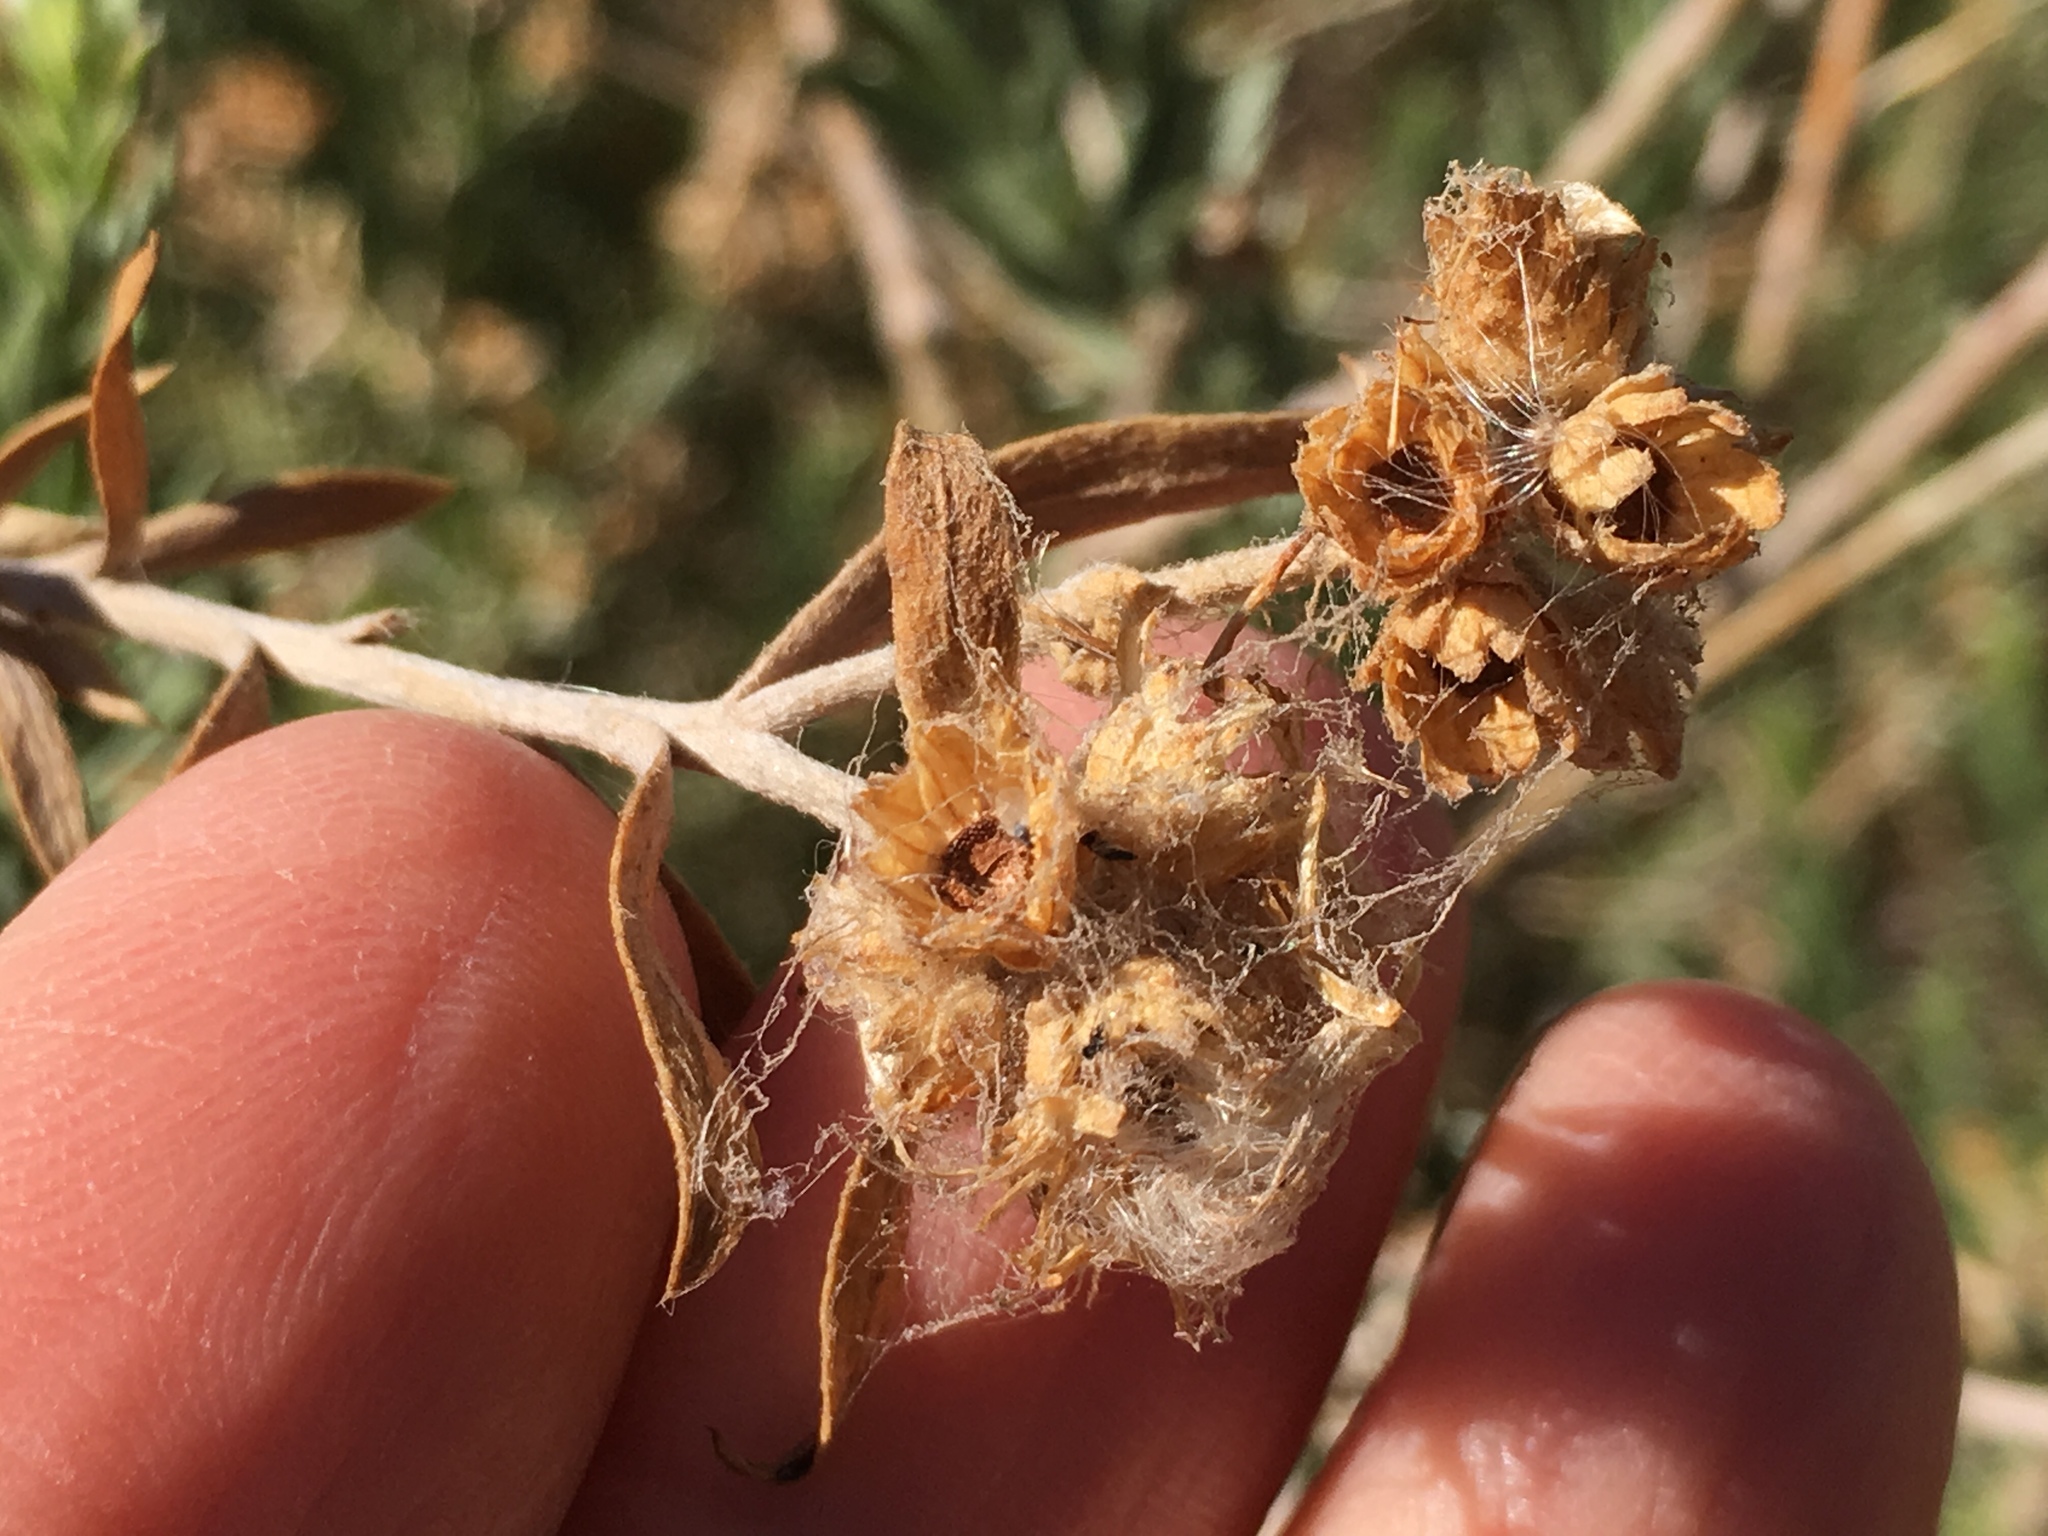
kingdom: Plantae
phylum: Tracheophyta
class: Magnoliopsida
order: Asterales
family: Asteraceae
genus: Pluchea
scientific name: Pluchea sericea
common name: Arrow-weed
